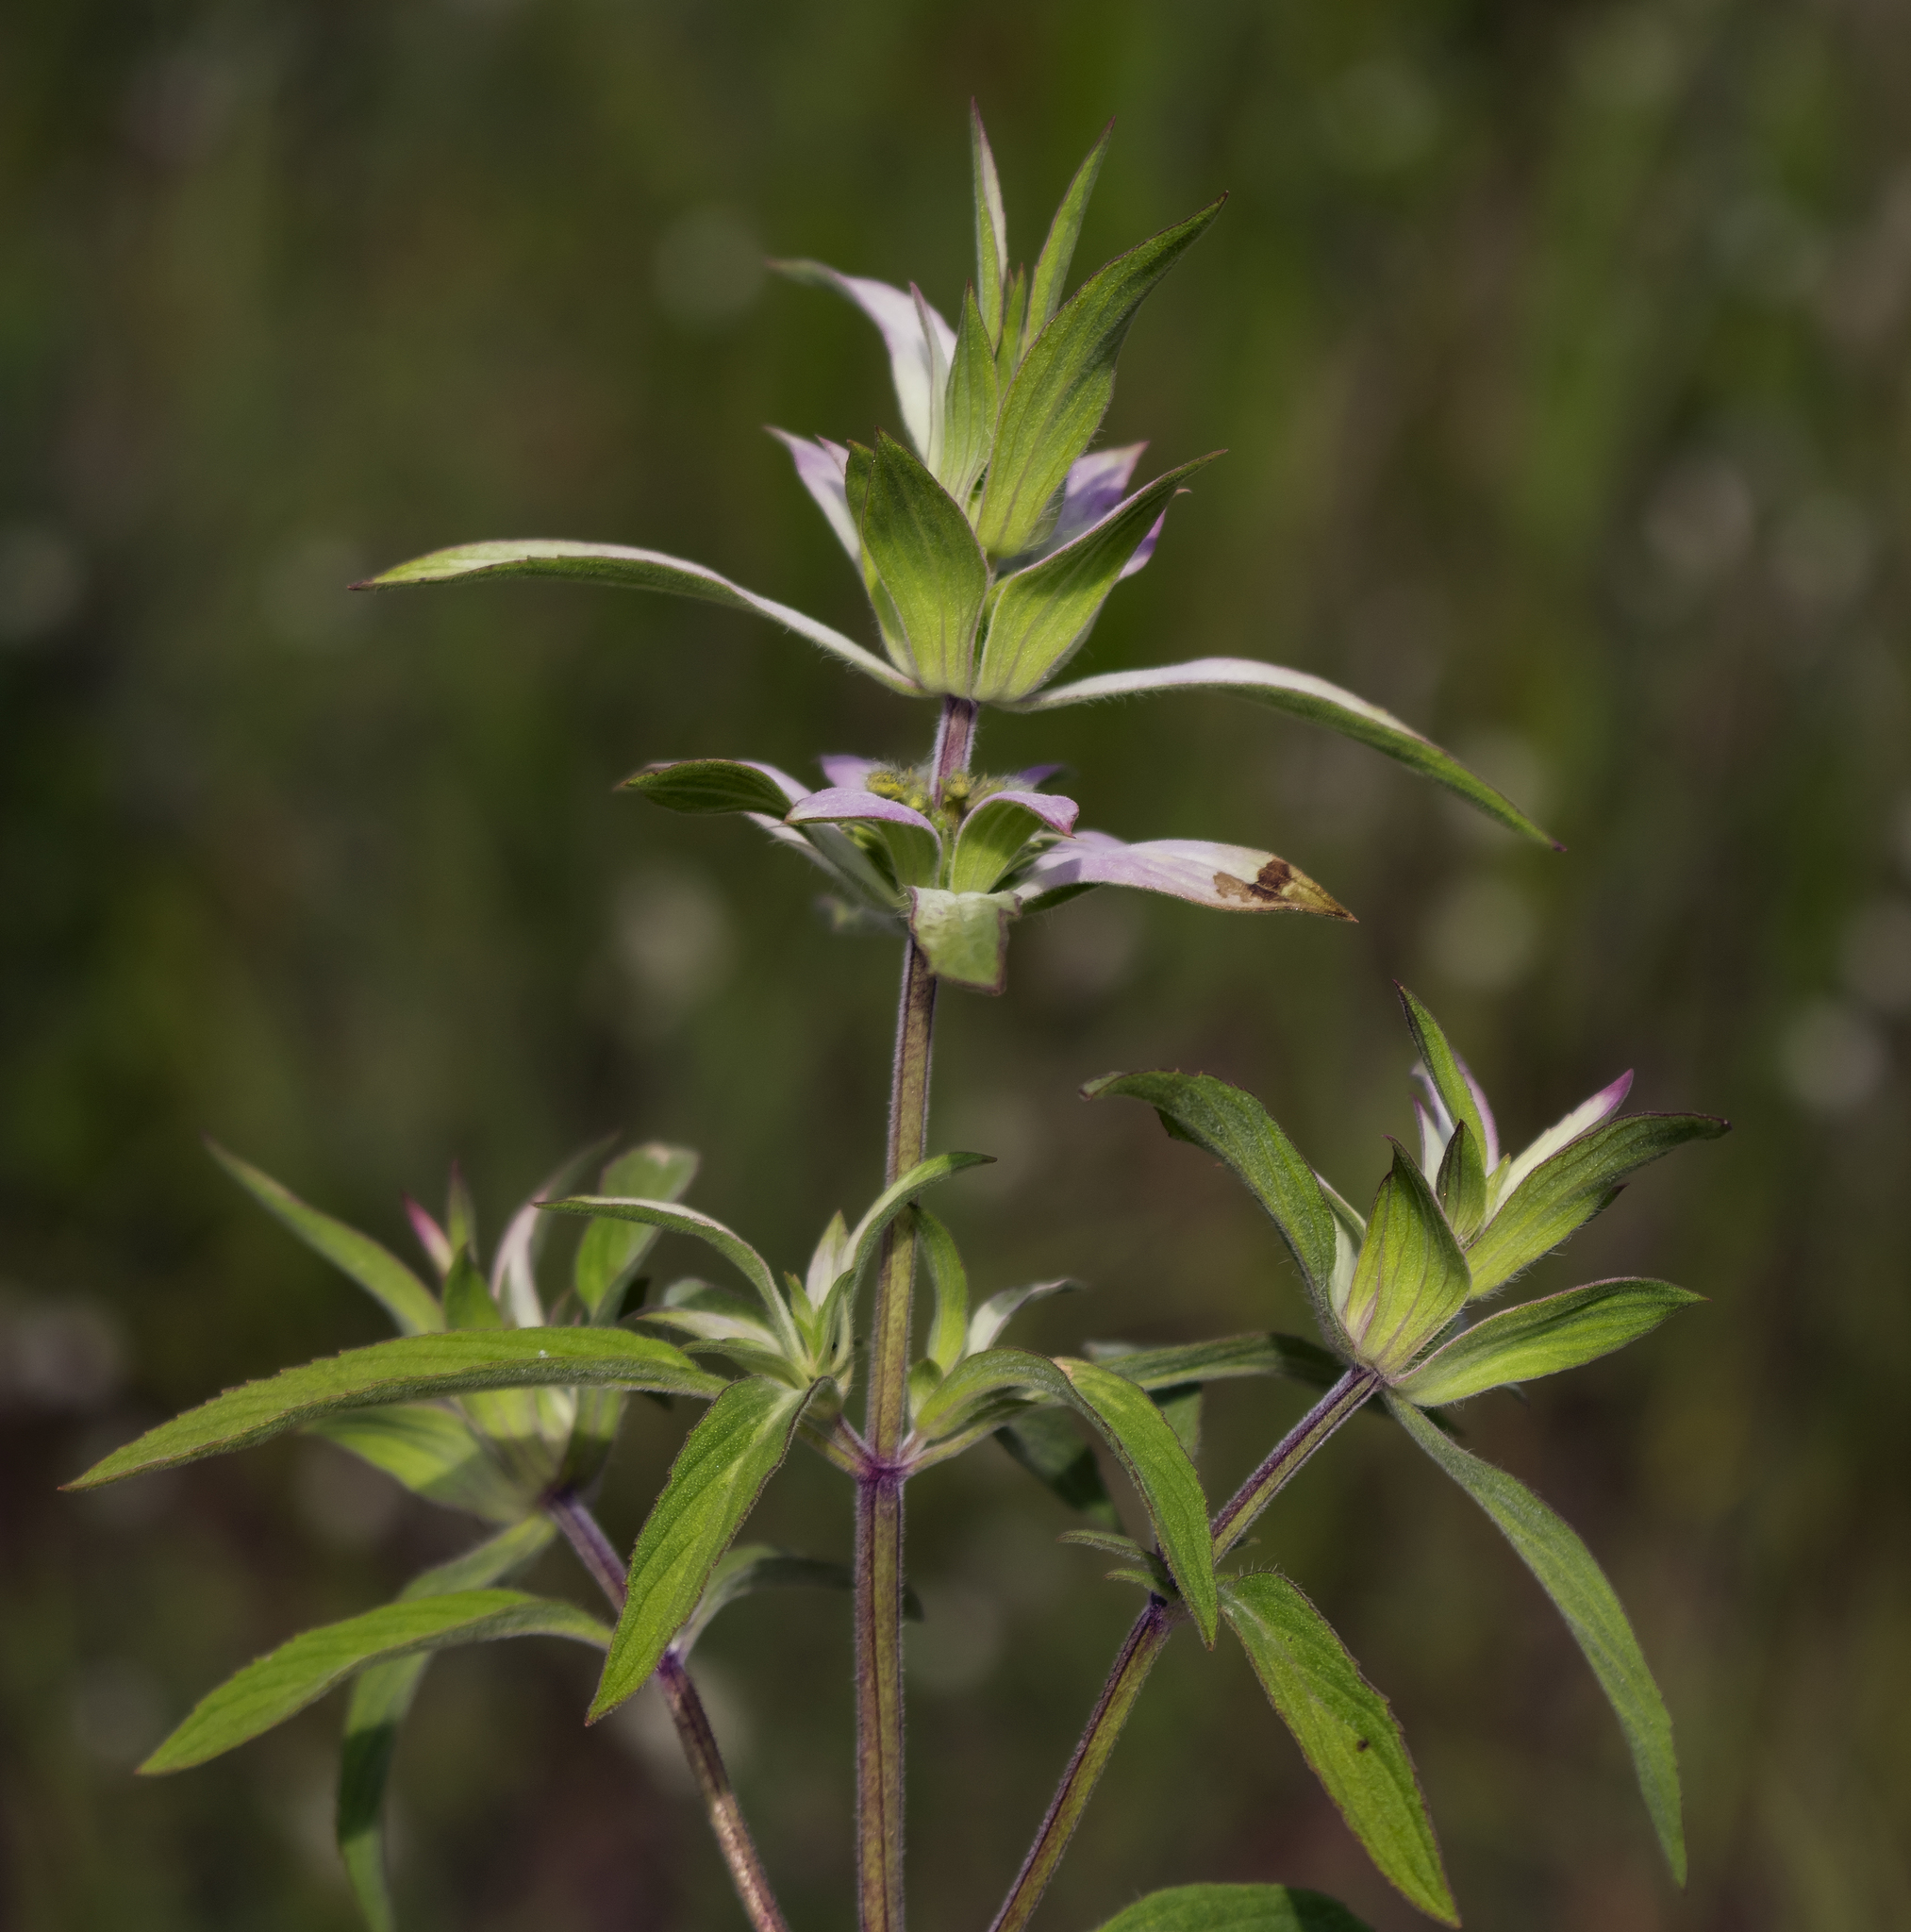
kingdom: Plantae
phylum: Tracheophyta
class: Magnoliopsida
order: Lamiales
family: Lamiaceae
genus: Monarda
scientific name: Monarda punctata
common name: Dotted monarda
